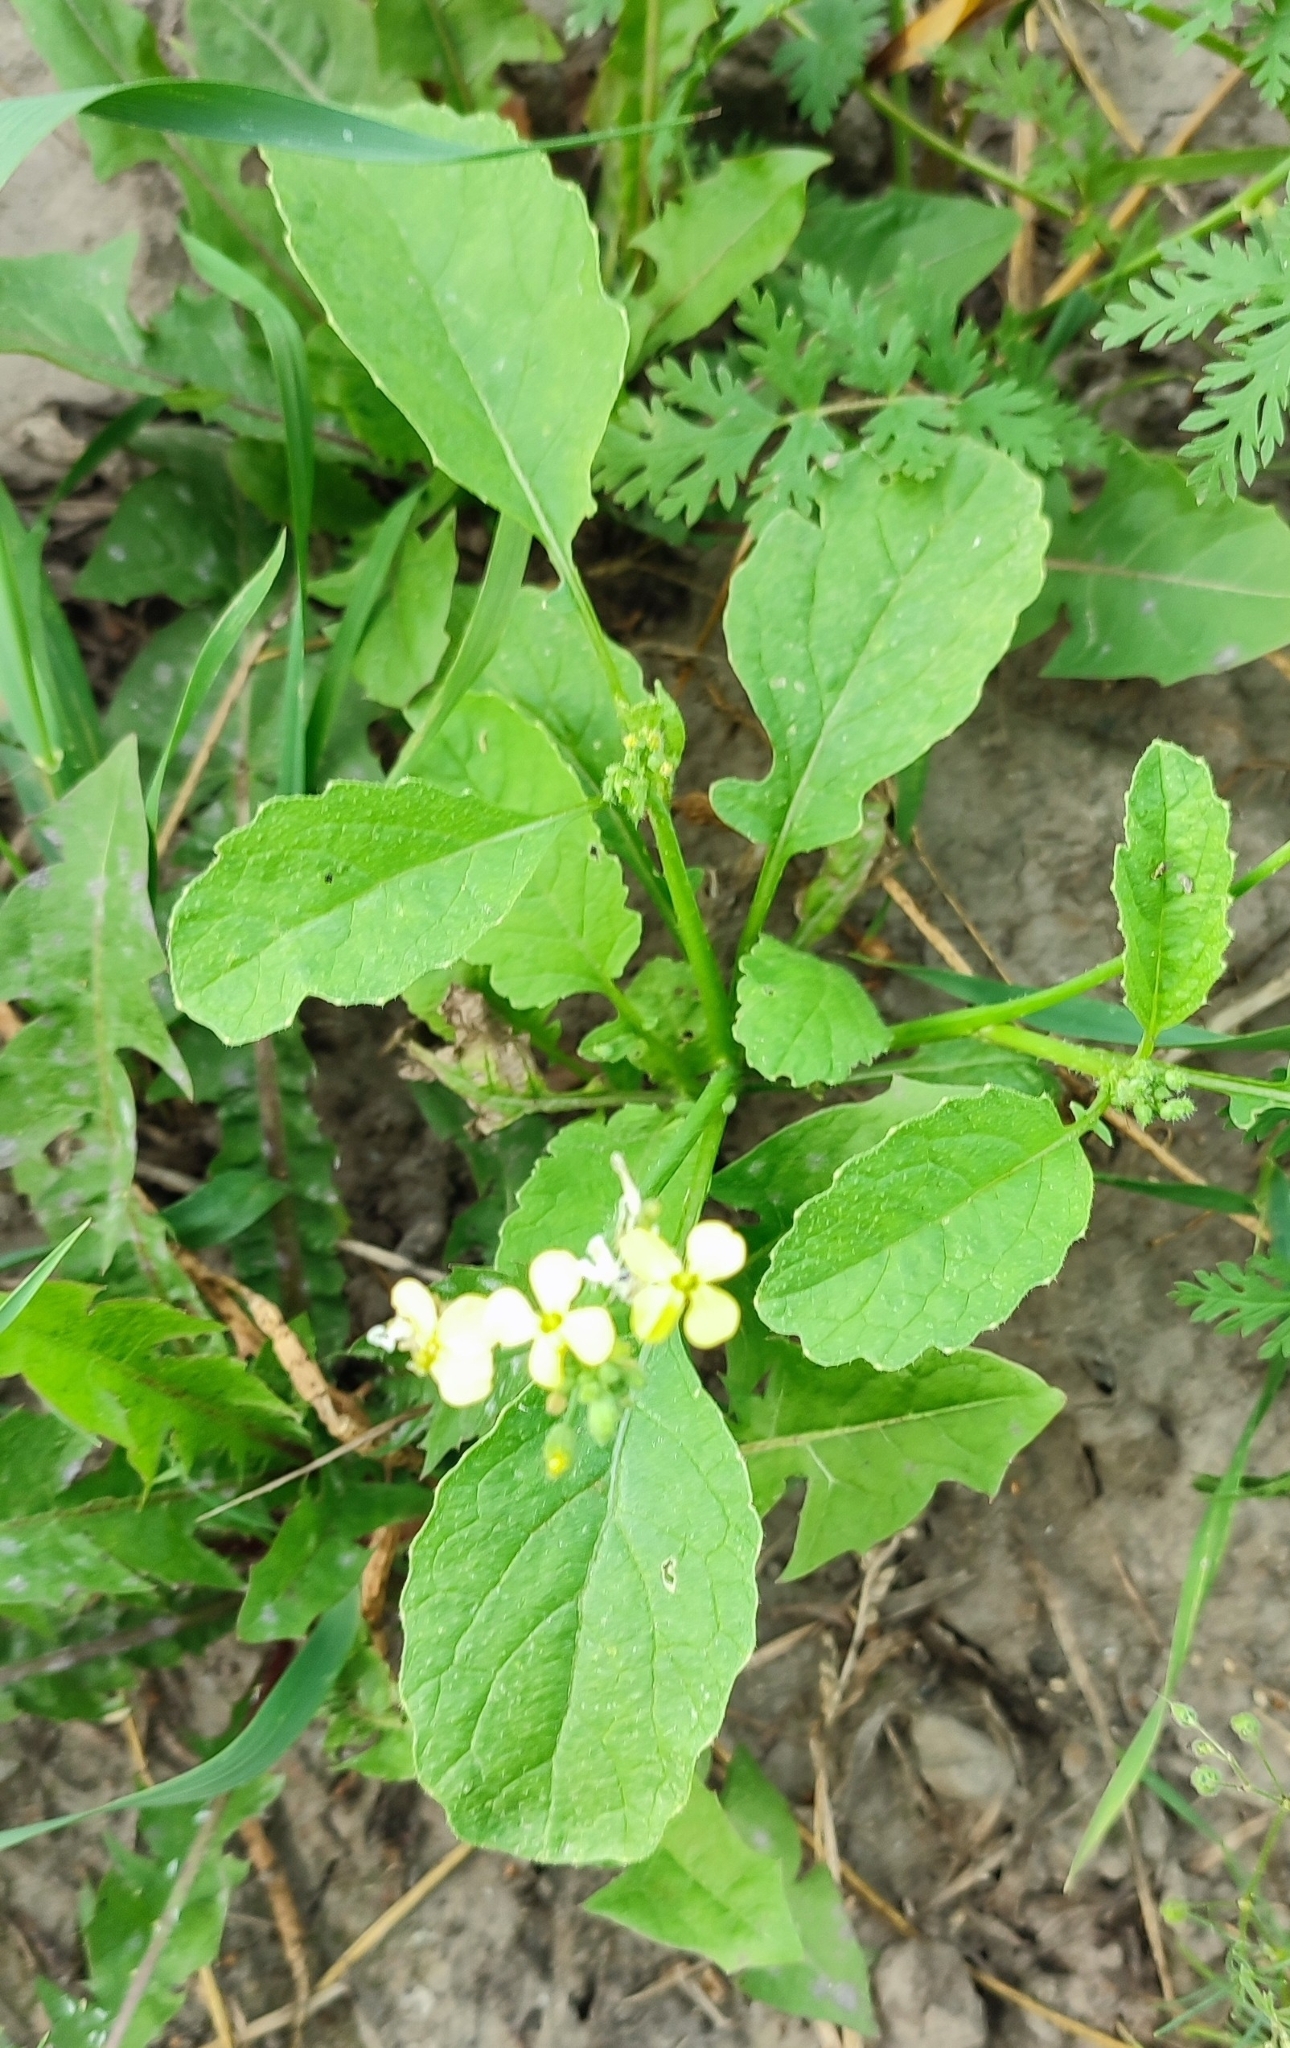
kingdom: Plantae
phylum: Tracheophyta
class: Magnoliopsida
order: Brassicales
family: Brassicaceae
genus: Raphanus
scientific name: Raphanus raphanistrum
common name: Wild radish
